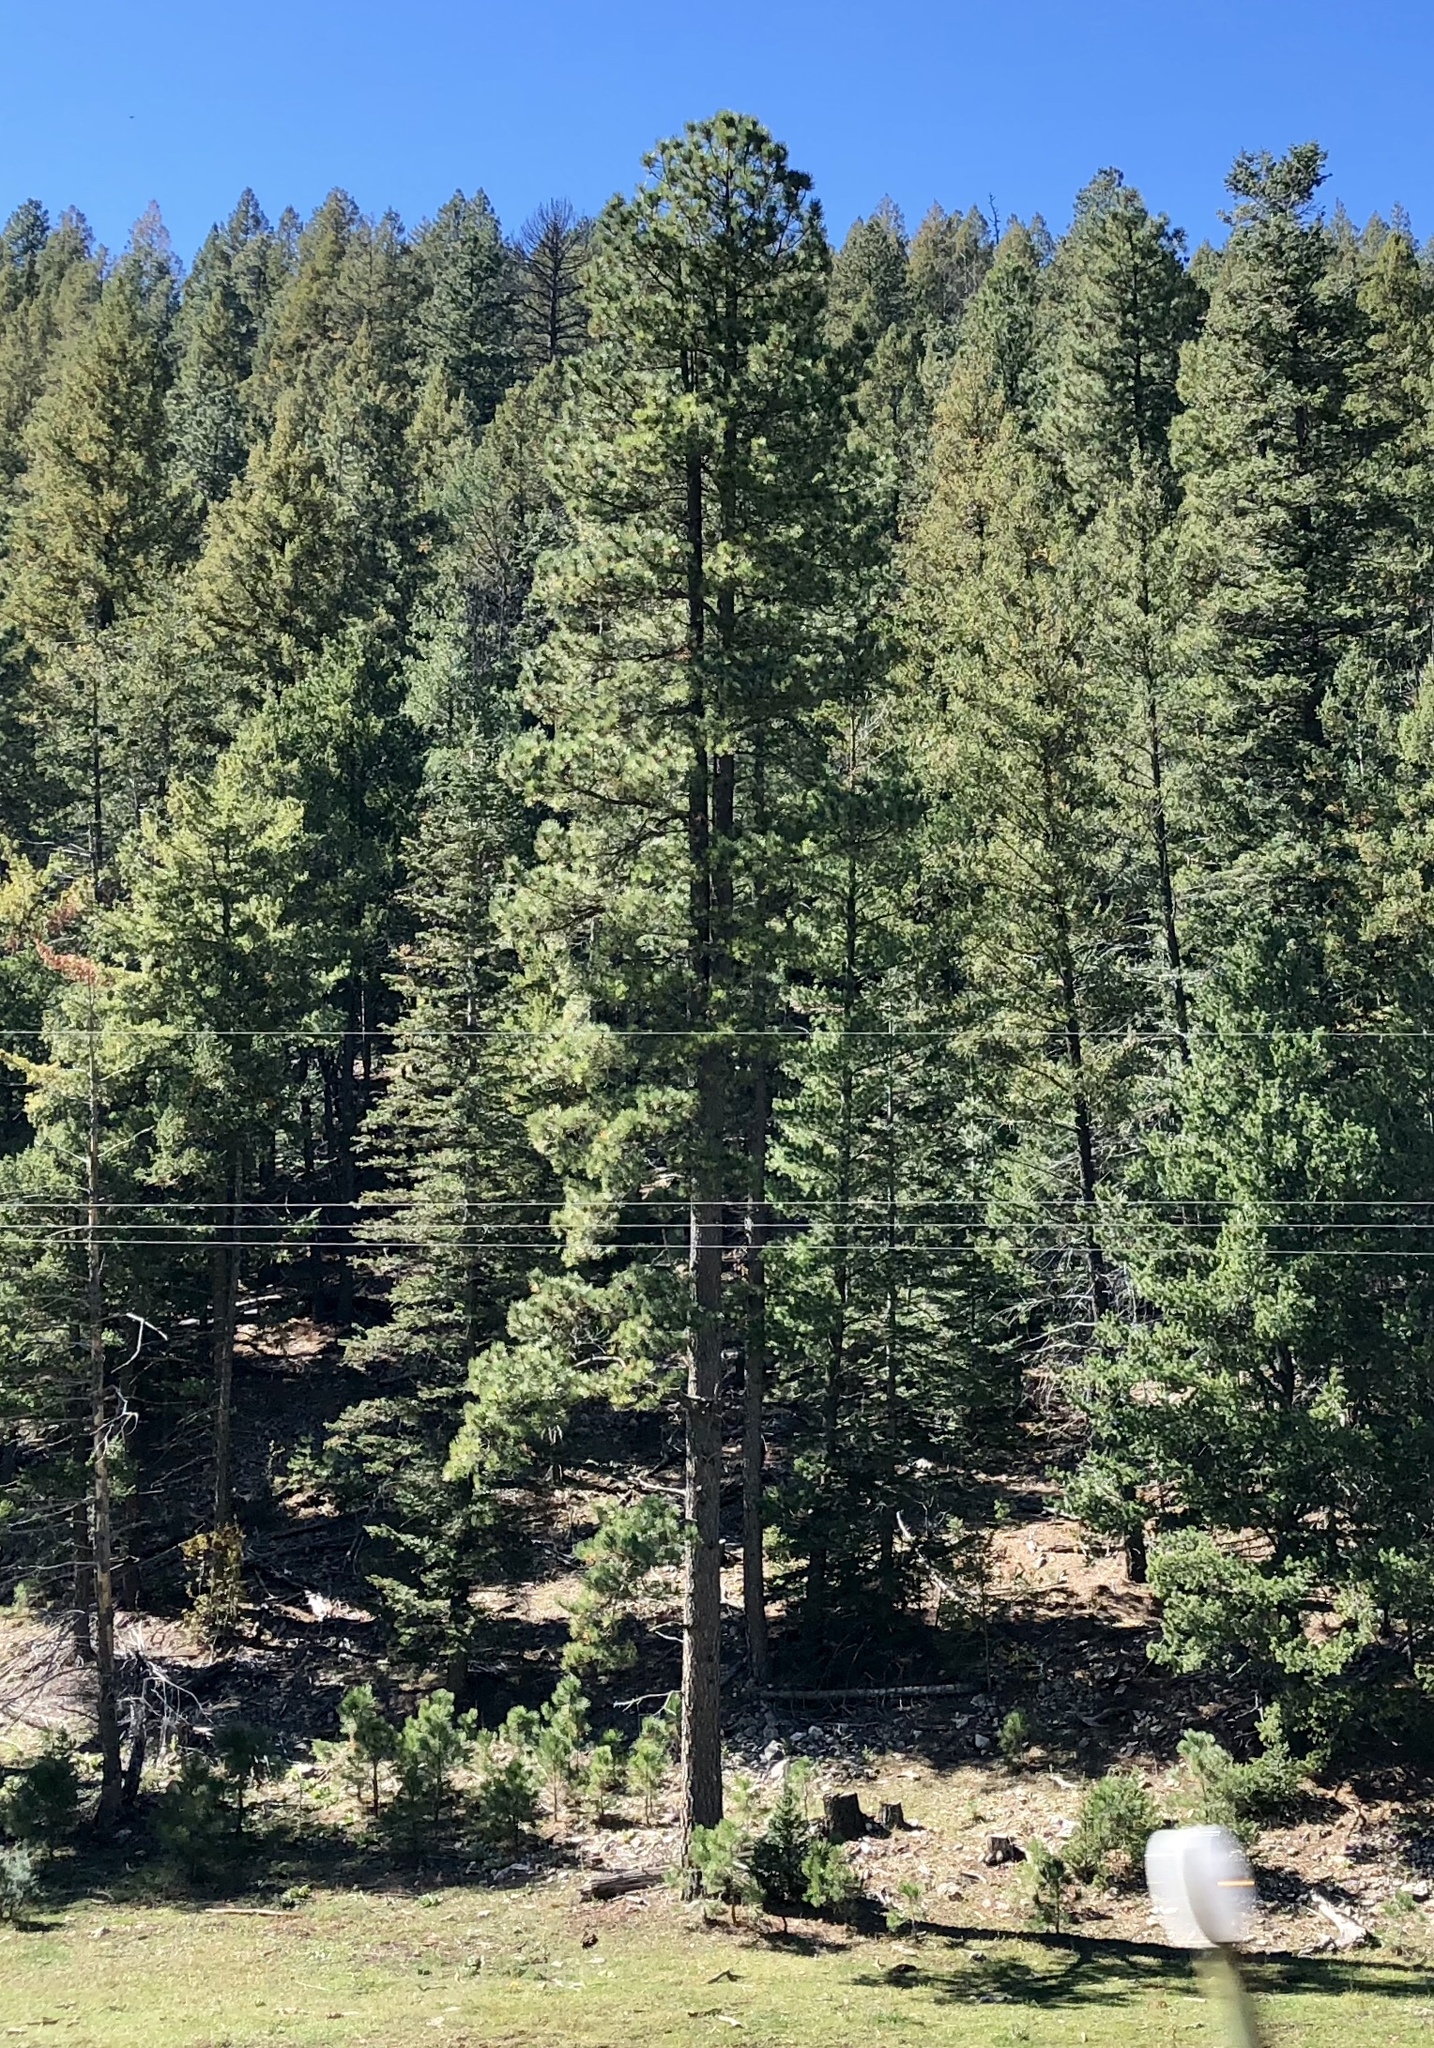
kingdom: Plantae
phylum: Tracheophyta
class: Pinopsida
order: Pinales
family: Pinaceae
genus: Pinus
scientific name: Pinus ponderosa
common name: Western yellow-pine
